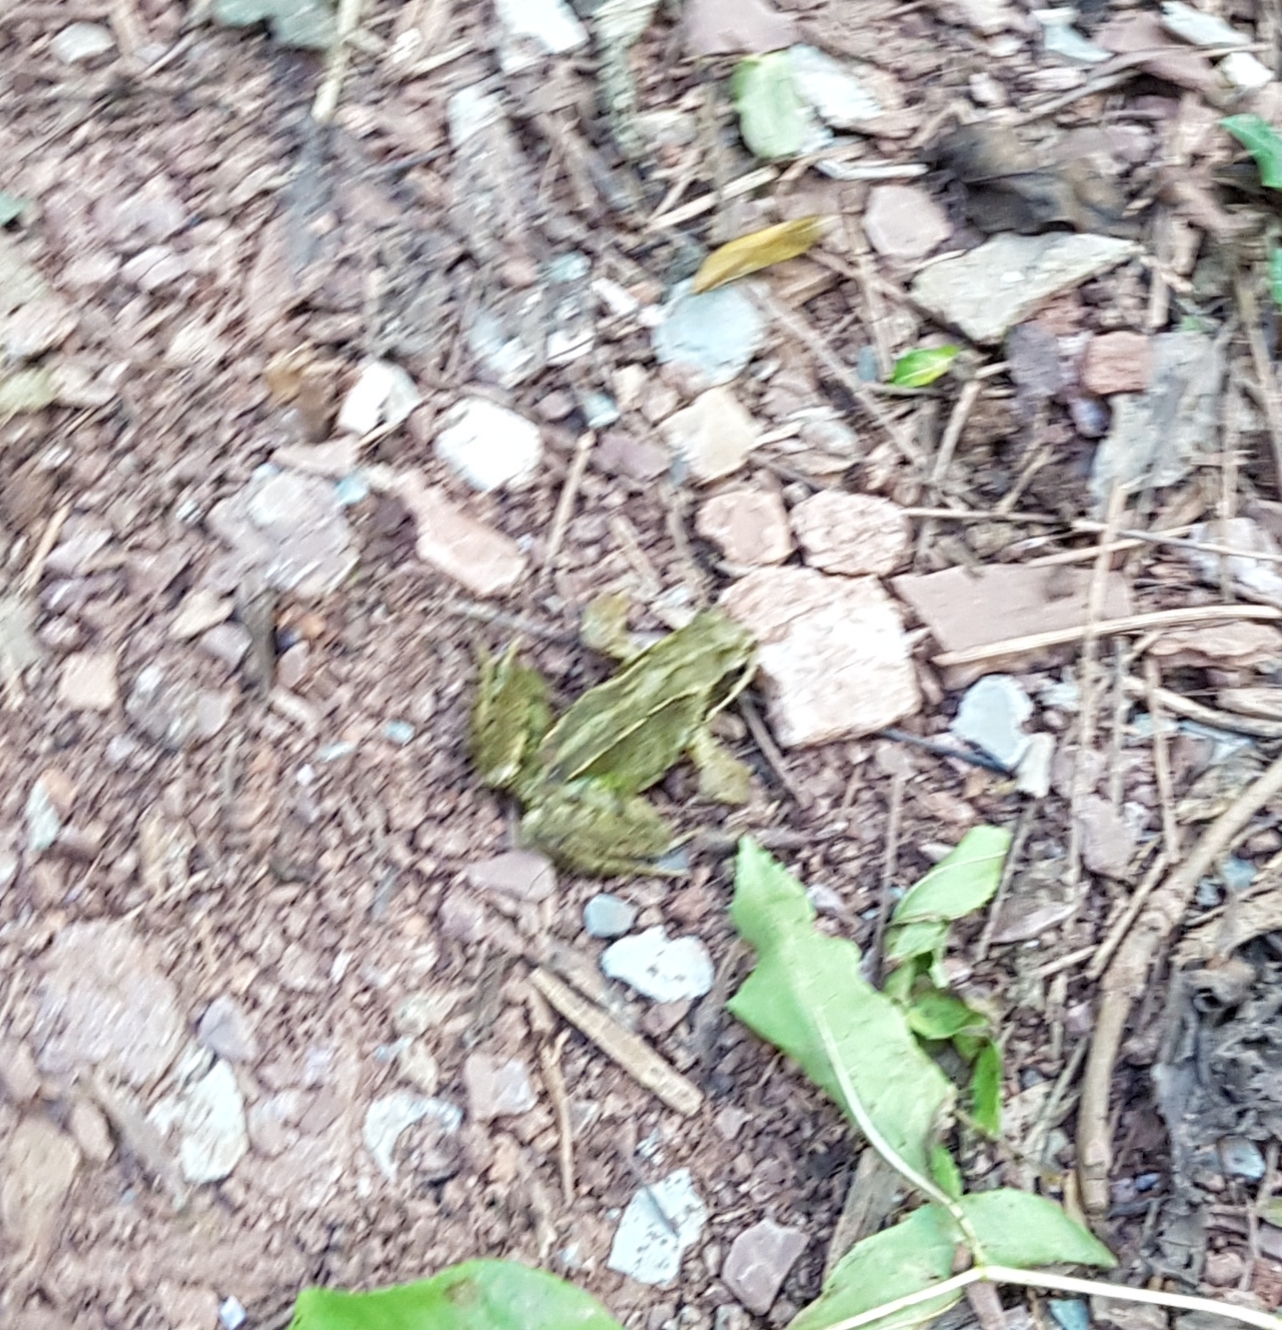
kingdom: Animalia
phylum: Chordata
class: Amphibia
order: Anura
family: Ranidae
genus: Rana
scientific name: Rana temporaria
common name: Common frog
